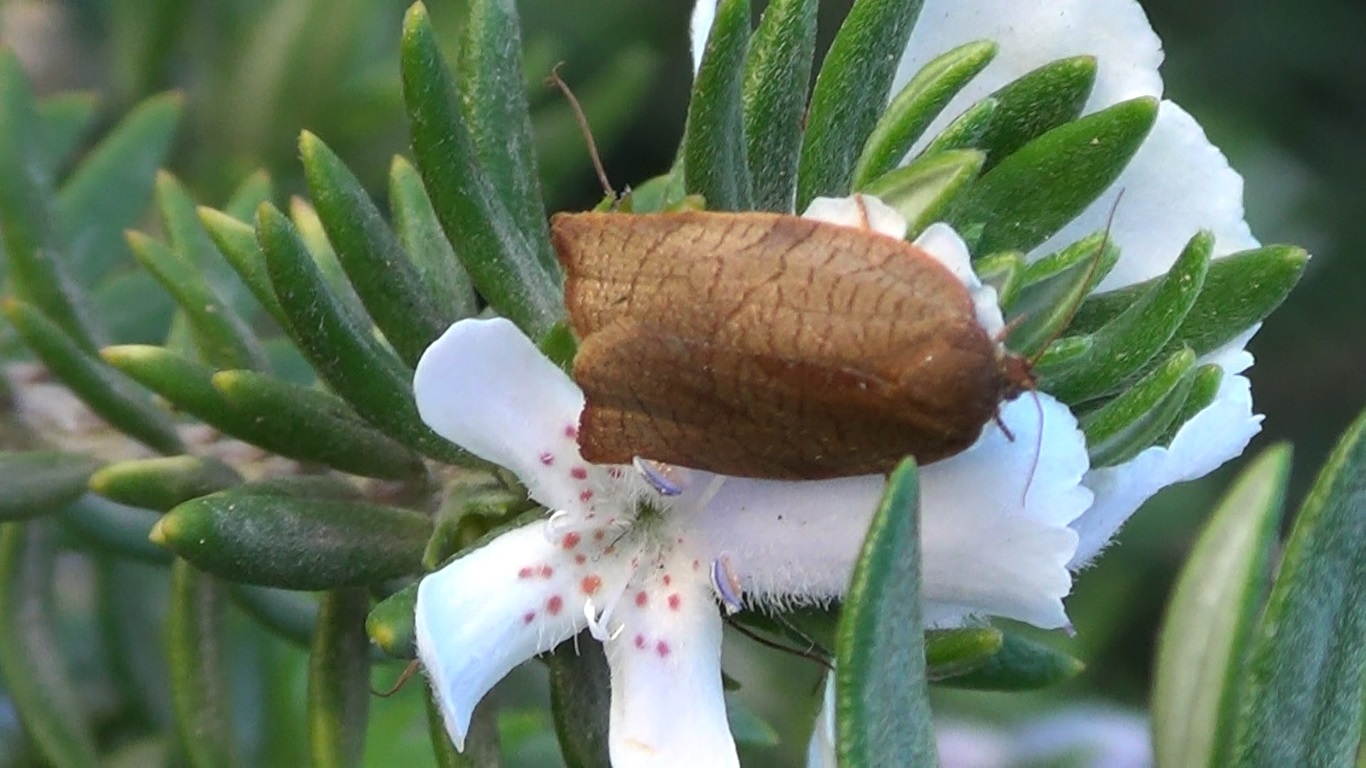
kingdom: Animalia
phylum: Arthropoda
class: Insecta
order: Lepidoptera
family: Tortricidae
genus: Cacoecimorpha
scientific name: Cacoecimorpha pronubana
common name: Carnation tortrix
